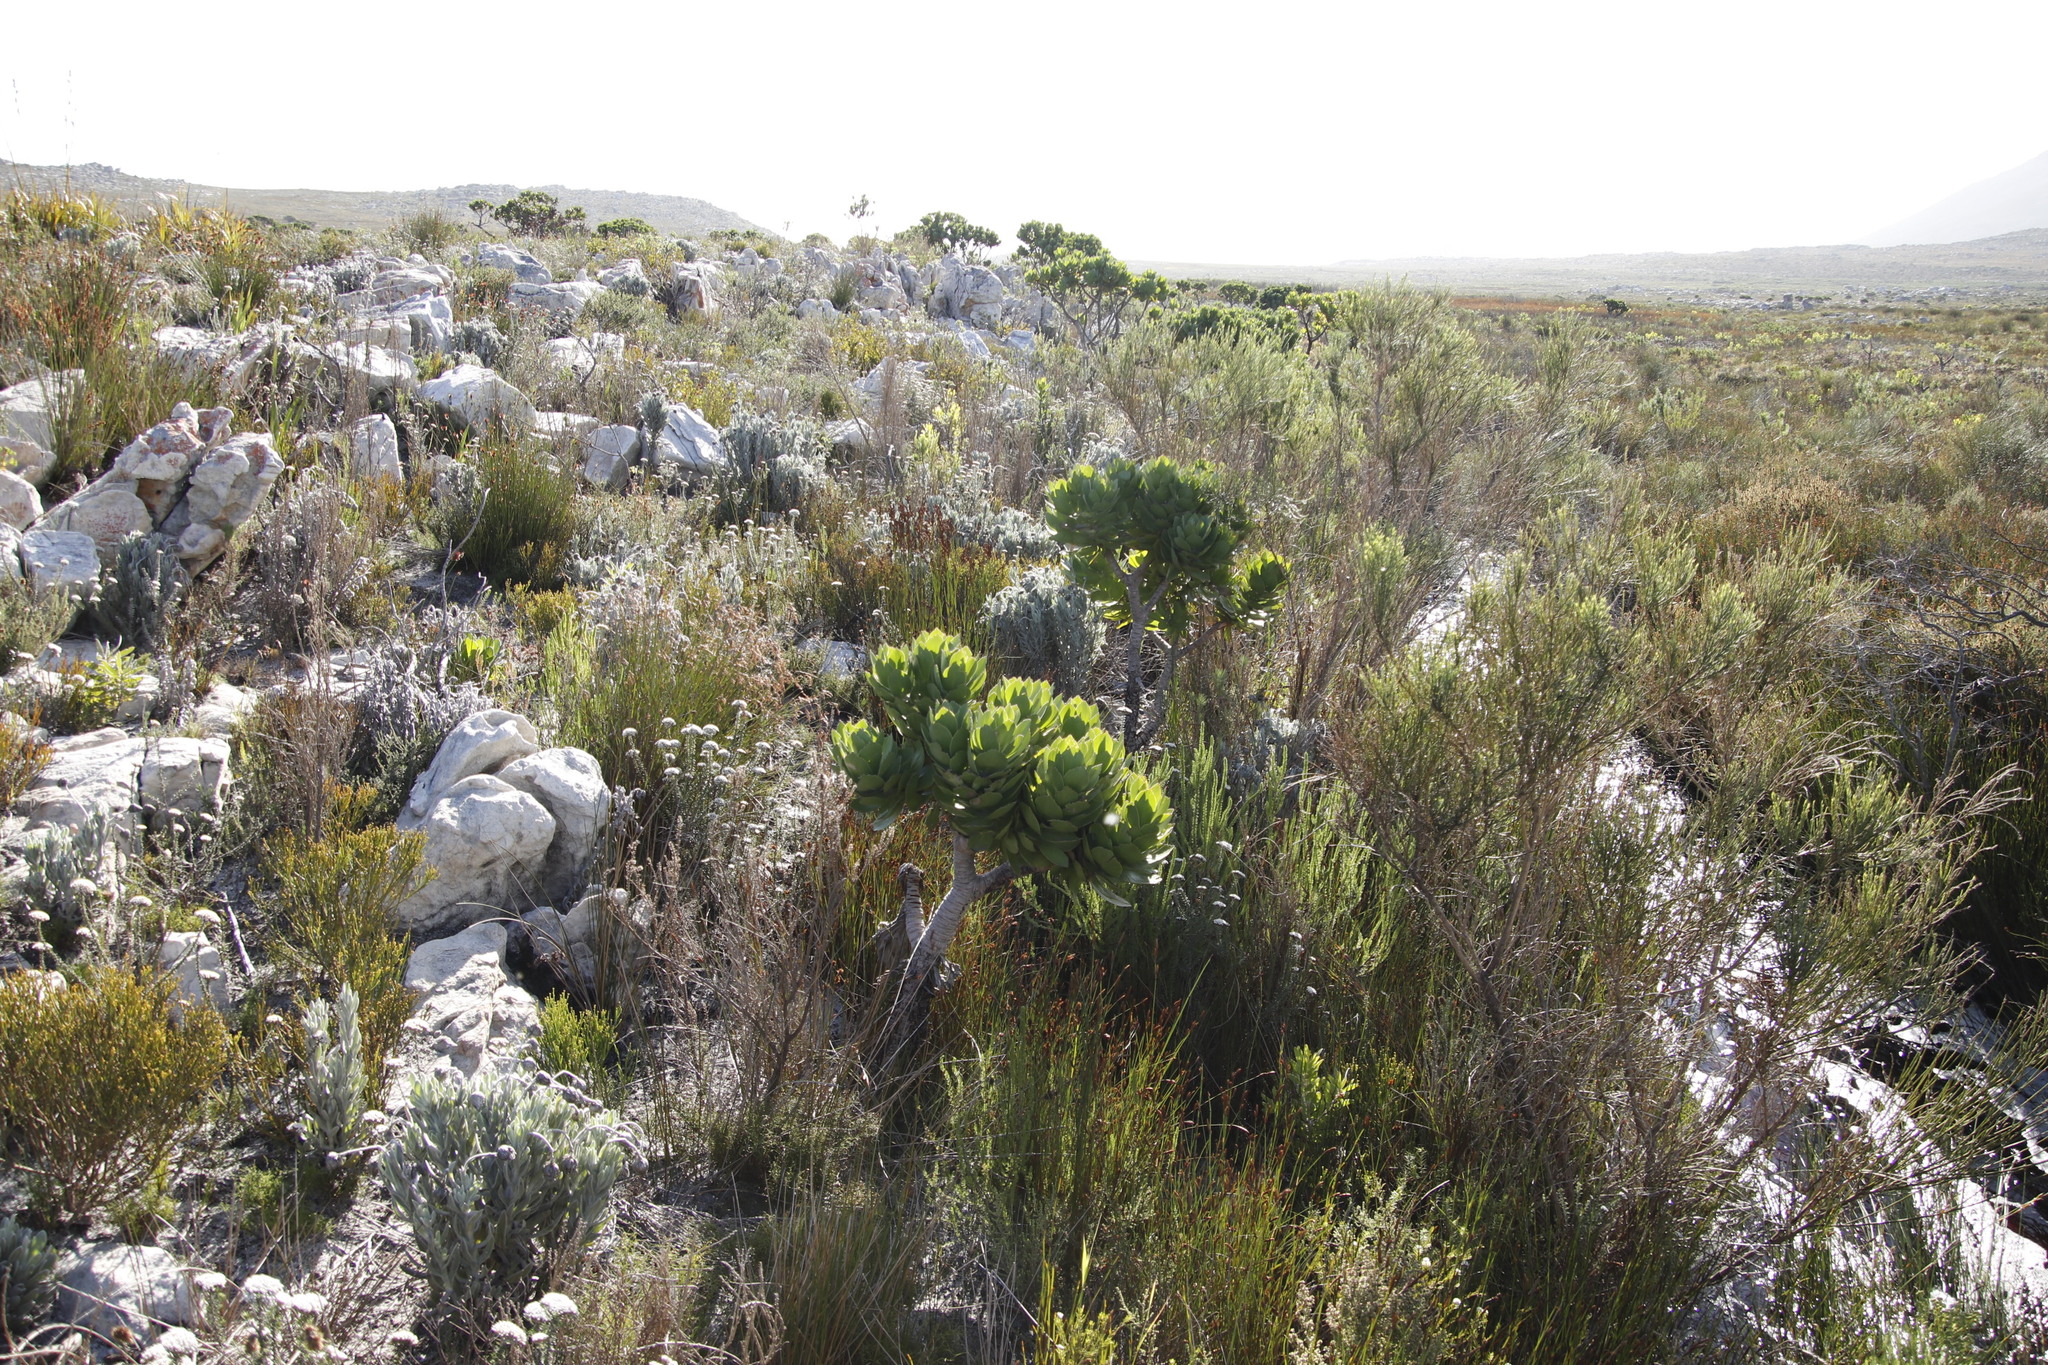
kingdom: Plantae
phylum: Tracheophyta
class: Magnoliopsida
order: Proteales
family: Proteaceae
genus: Leucospermum
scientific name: Leucospermum conocarpodendron
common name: Tree pincushion
